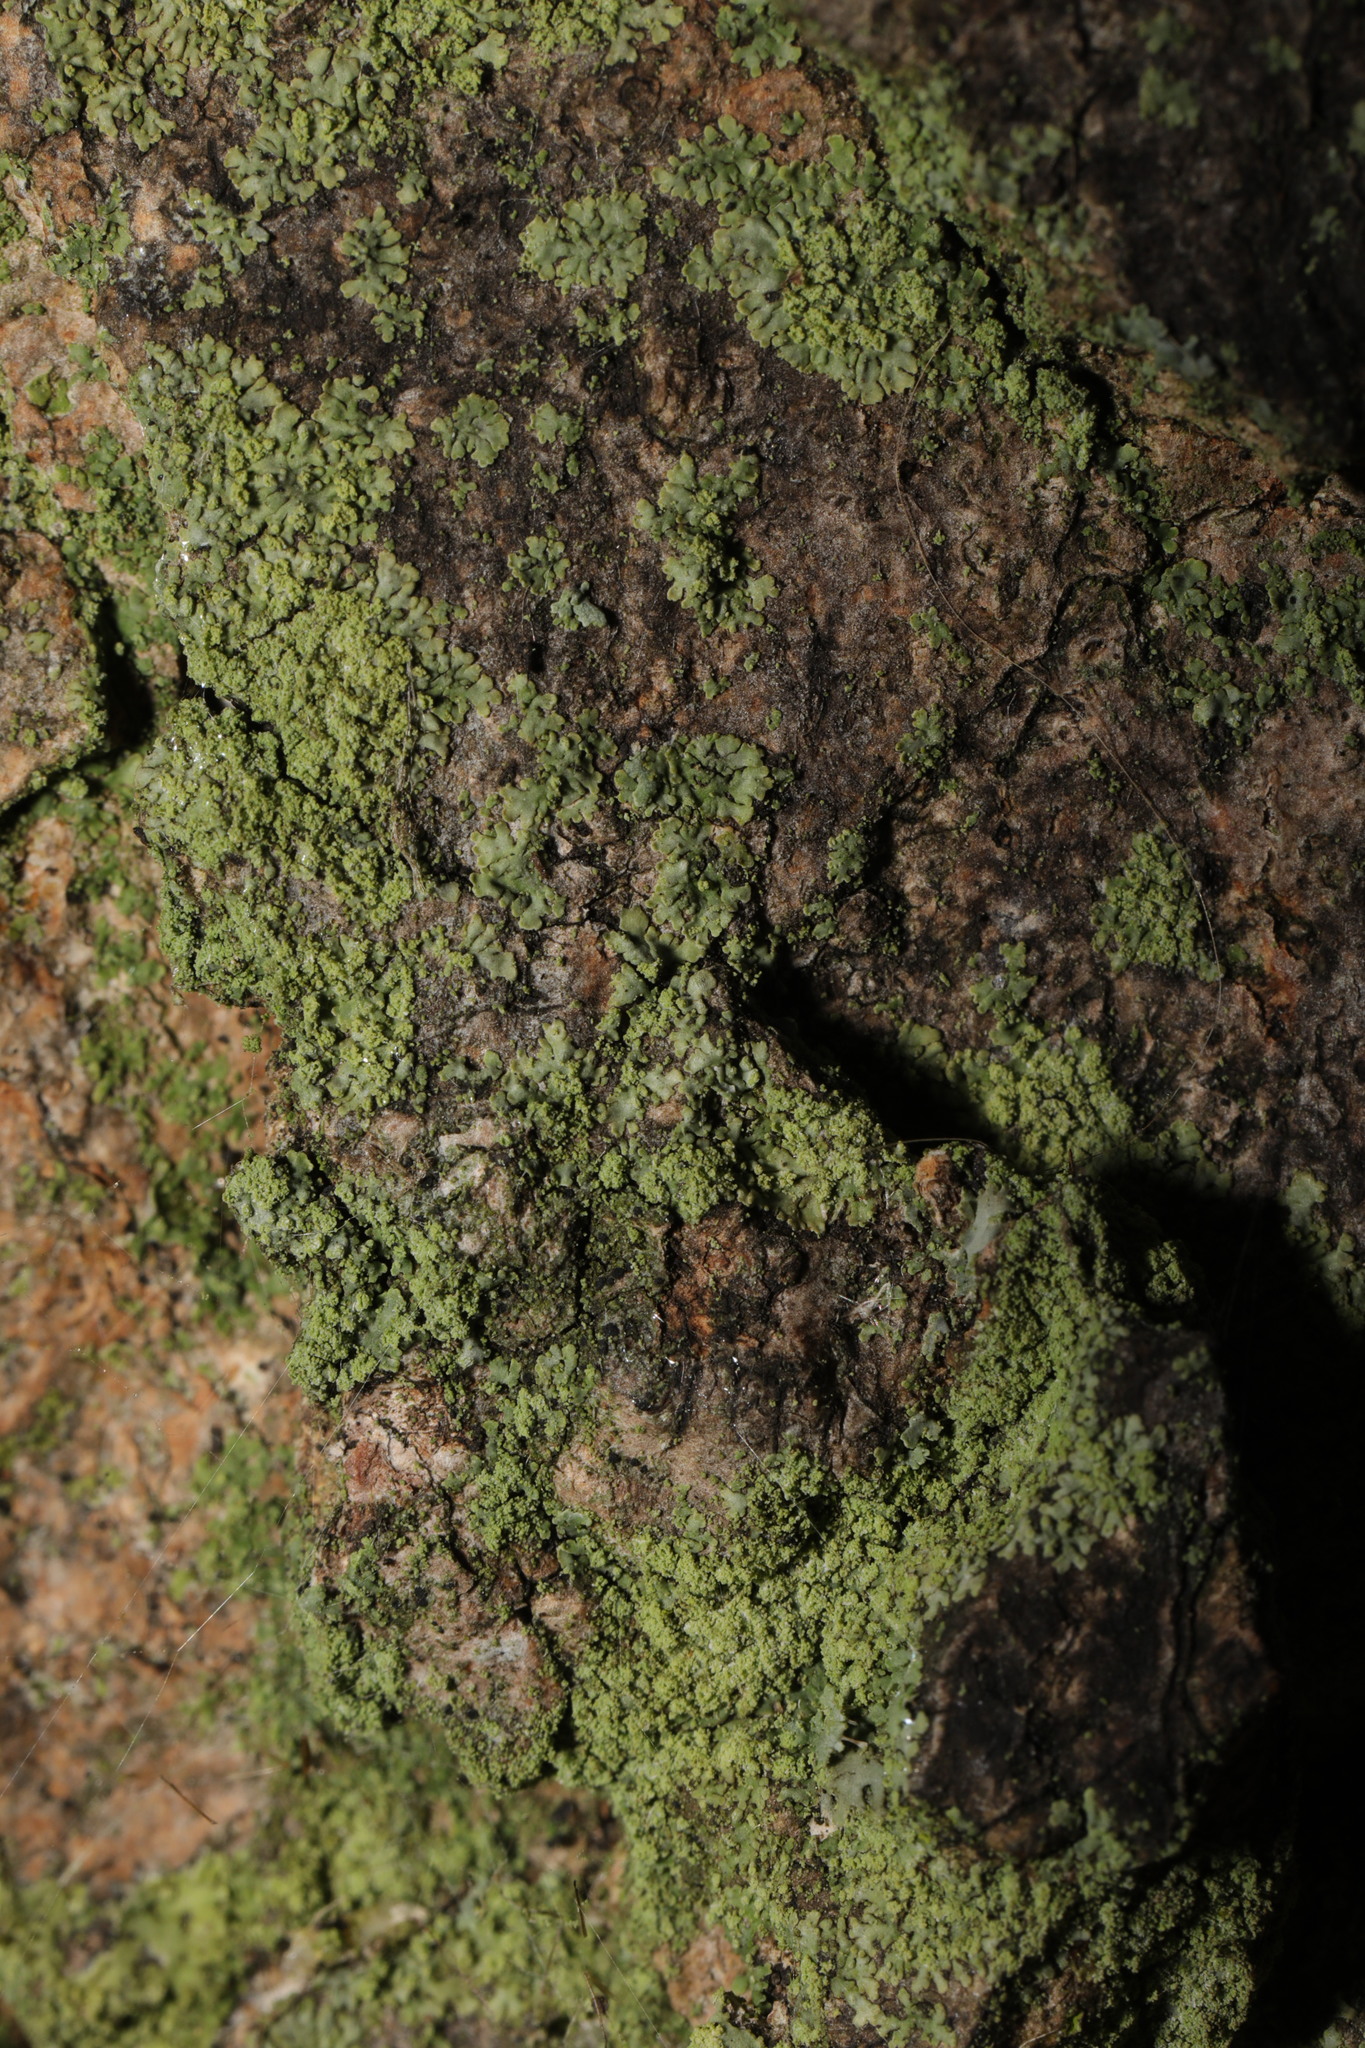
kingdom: Fungi
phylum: Ascomycota
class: Lecanoromycetes
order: Caliciales
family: Physciaceae
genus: Phaeophyscia
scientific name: Phaeophyscia orbicularis
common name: Mealy shadow lichen
